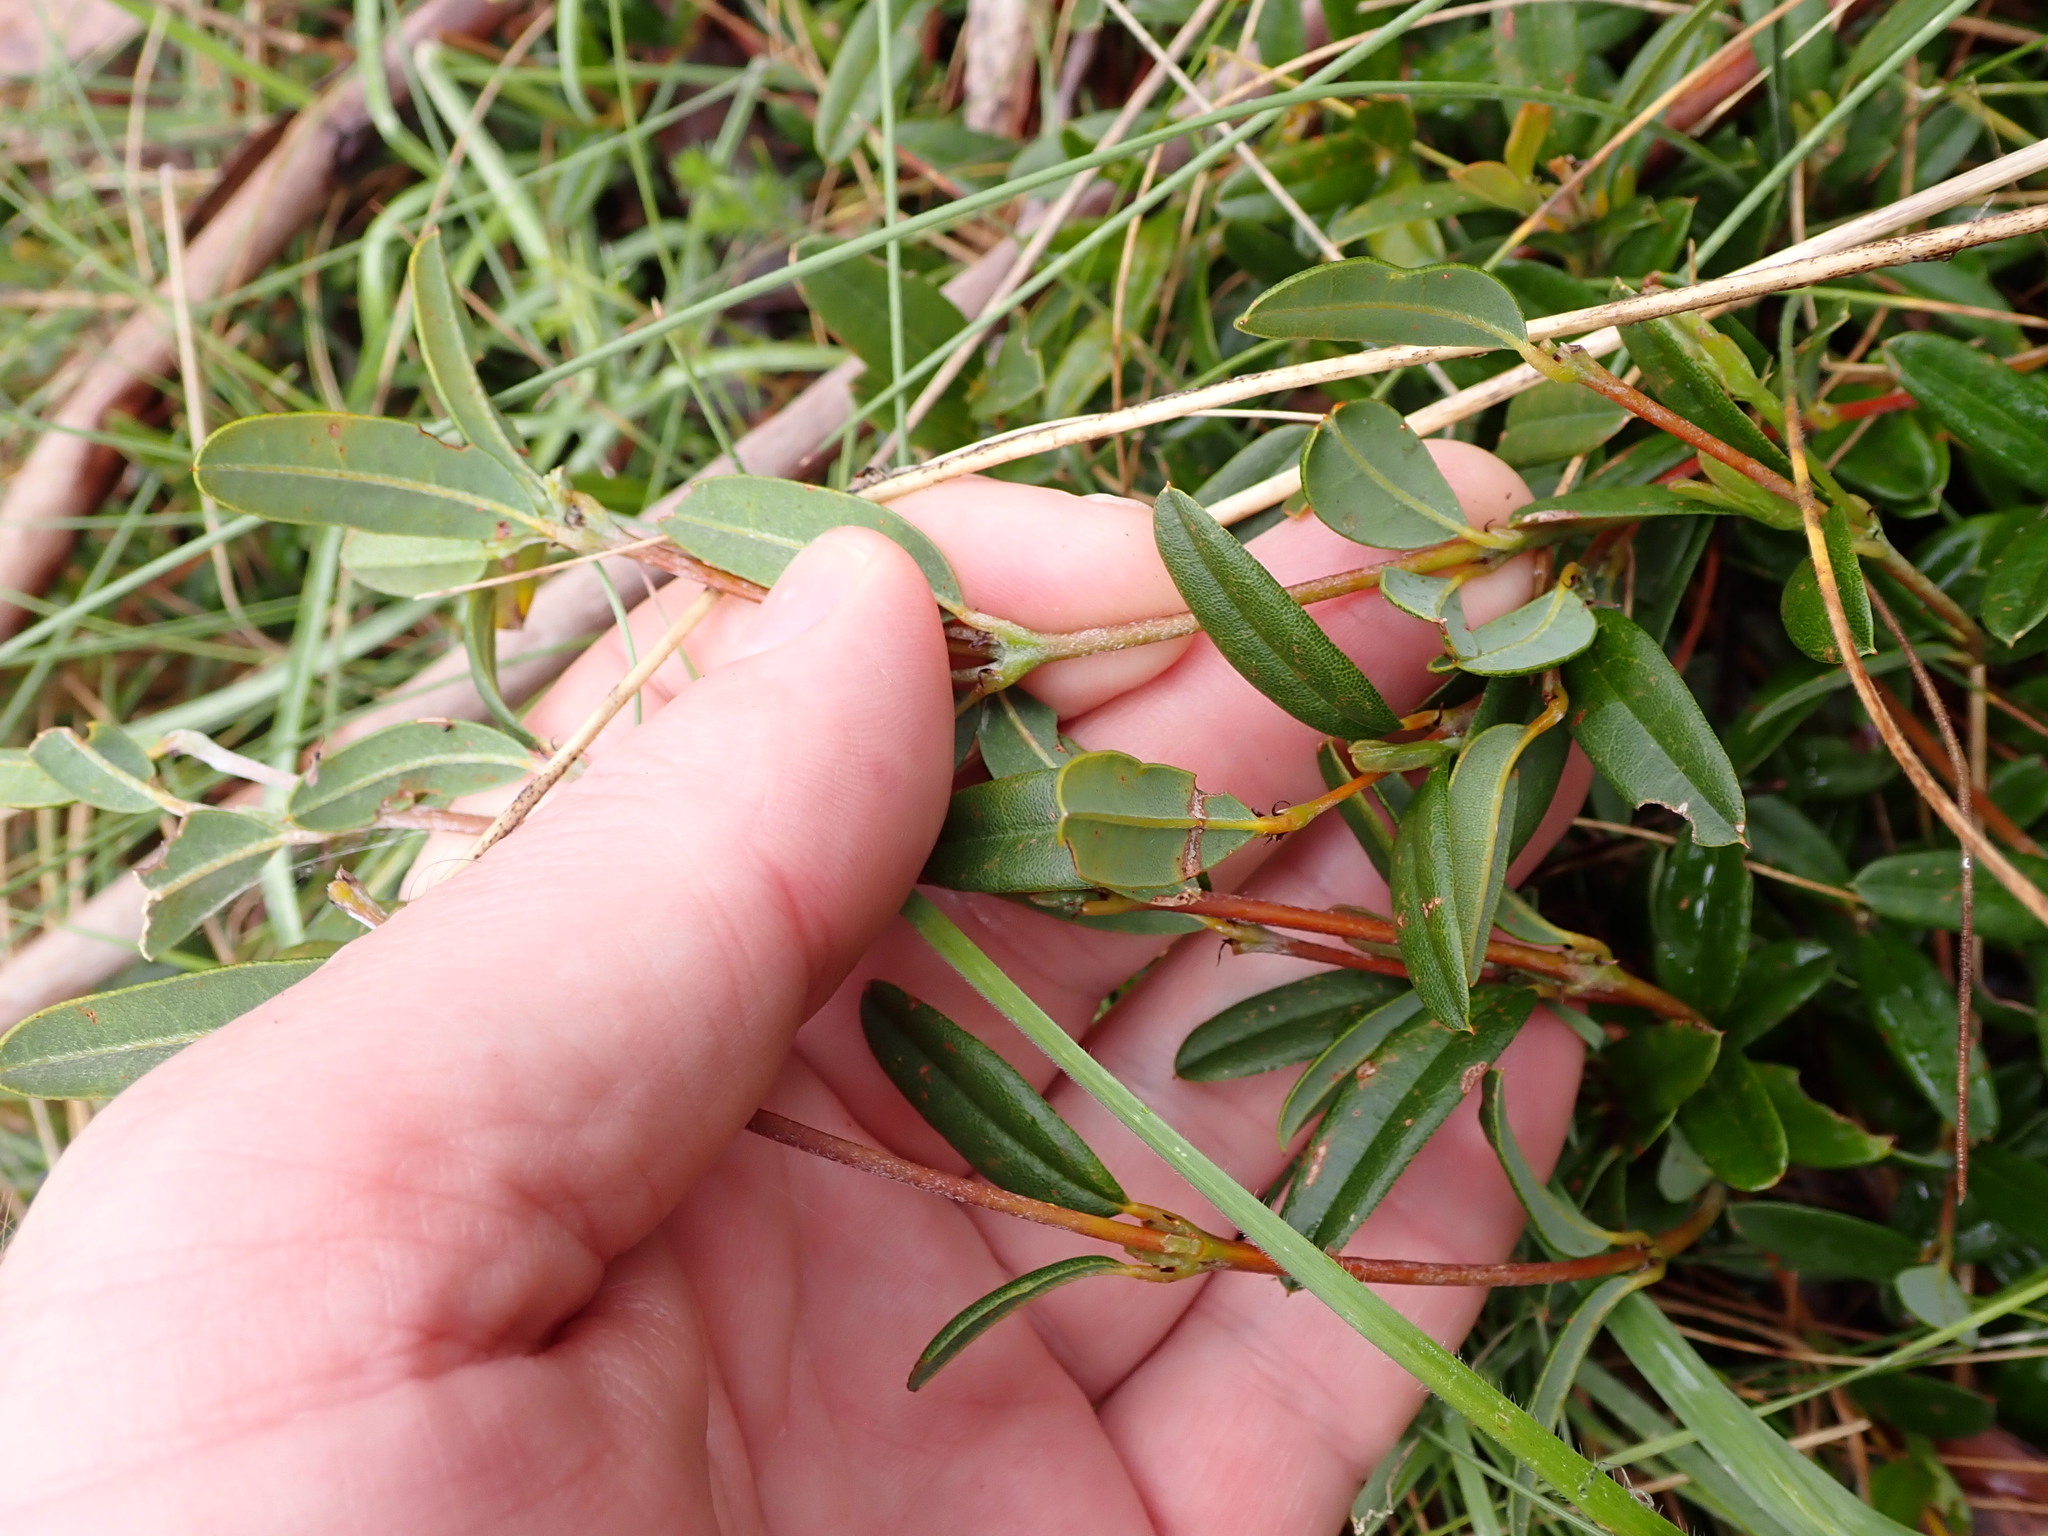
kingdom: Plantae
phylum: Tracheophyta
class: Magnoliopsida
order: Fabales
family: Fabaceae
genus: Podolobium
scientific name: Podolobium alpestre
